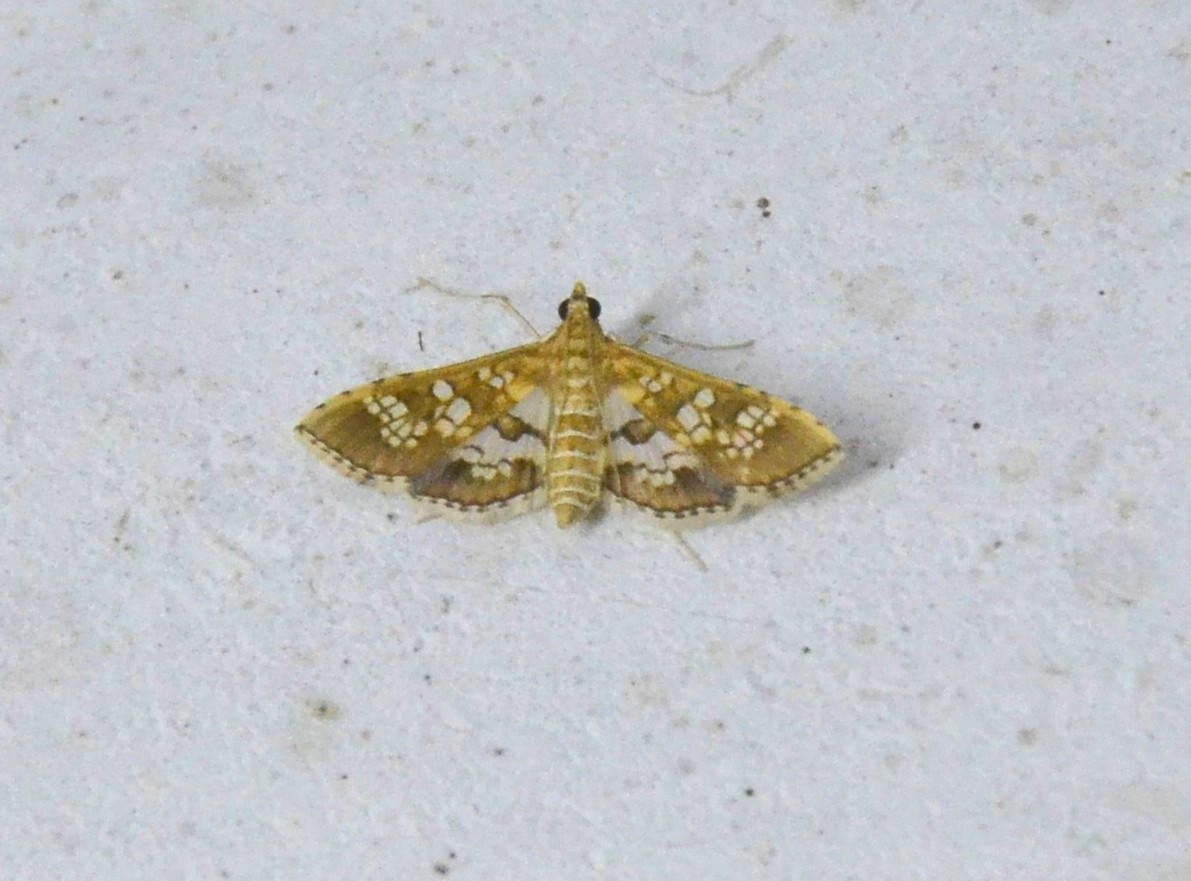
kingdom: Animalia
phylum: Arthropoda
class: Insecta
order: Lepidoptera
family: Crambidae
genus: Sameodes
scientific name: Sameodes cancellalis
